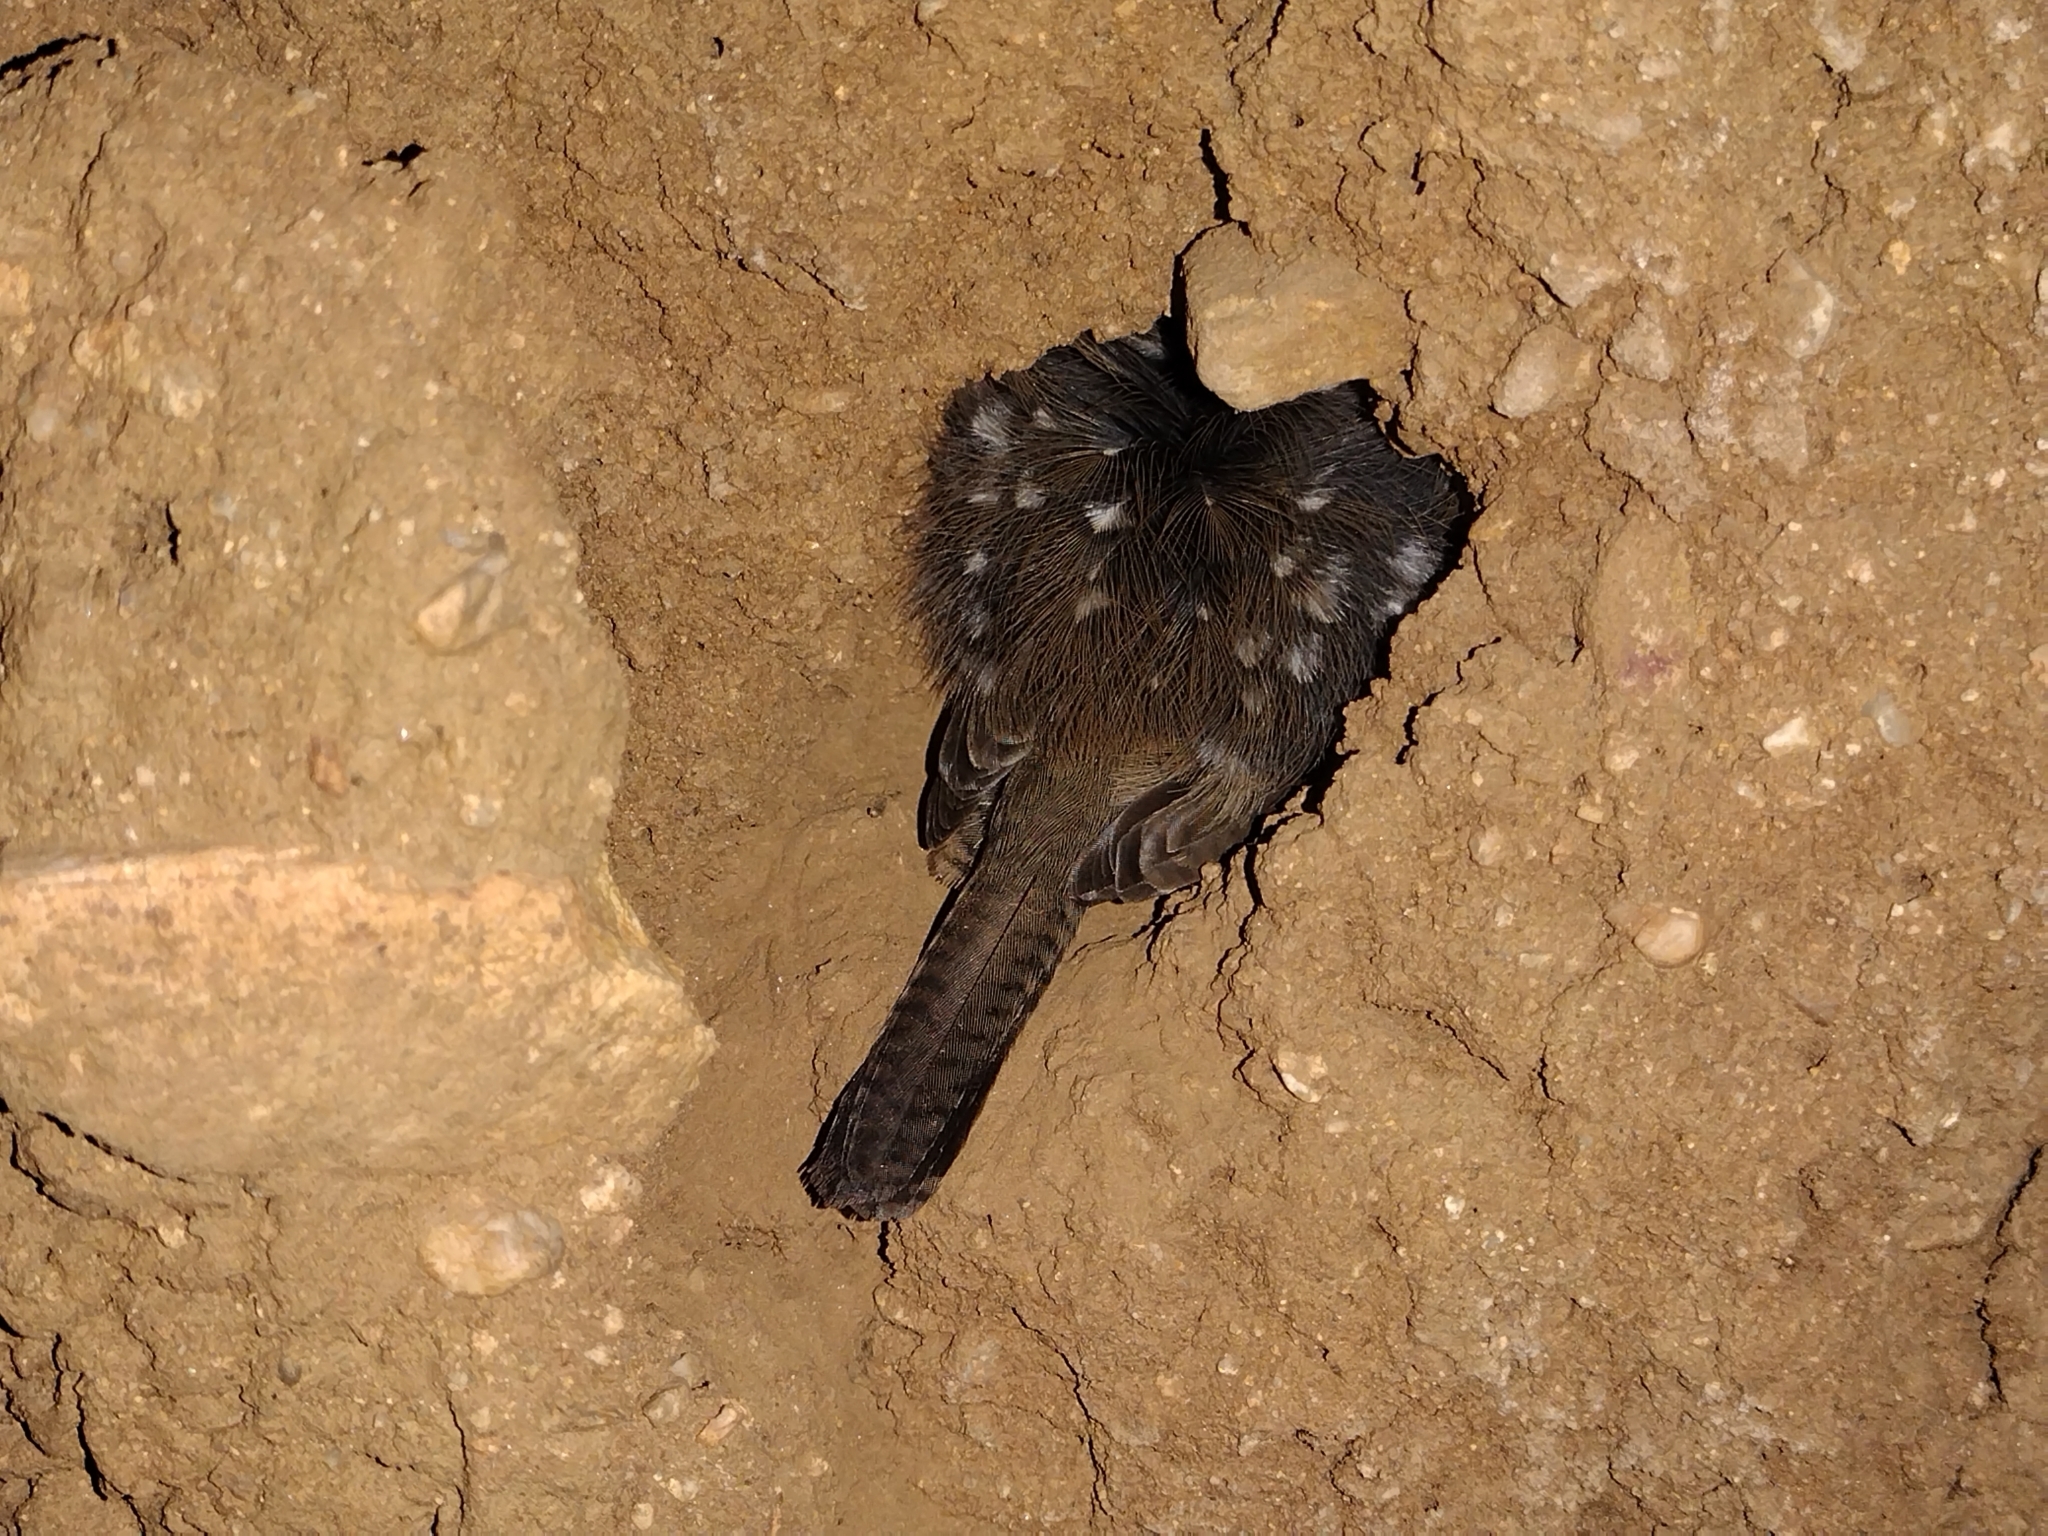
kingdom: Animalia
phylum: Chordata
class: Aves
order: Passeriformes
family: Troglodytidae
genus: Salpinctes
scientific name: Salpinctes obsoletus
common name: Rock wren
